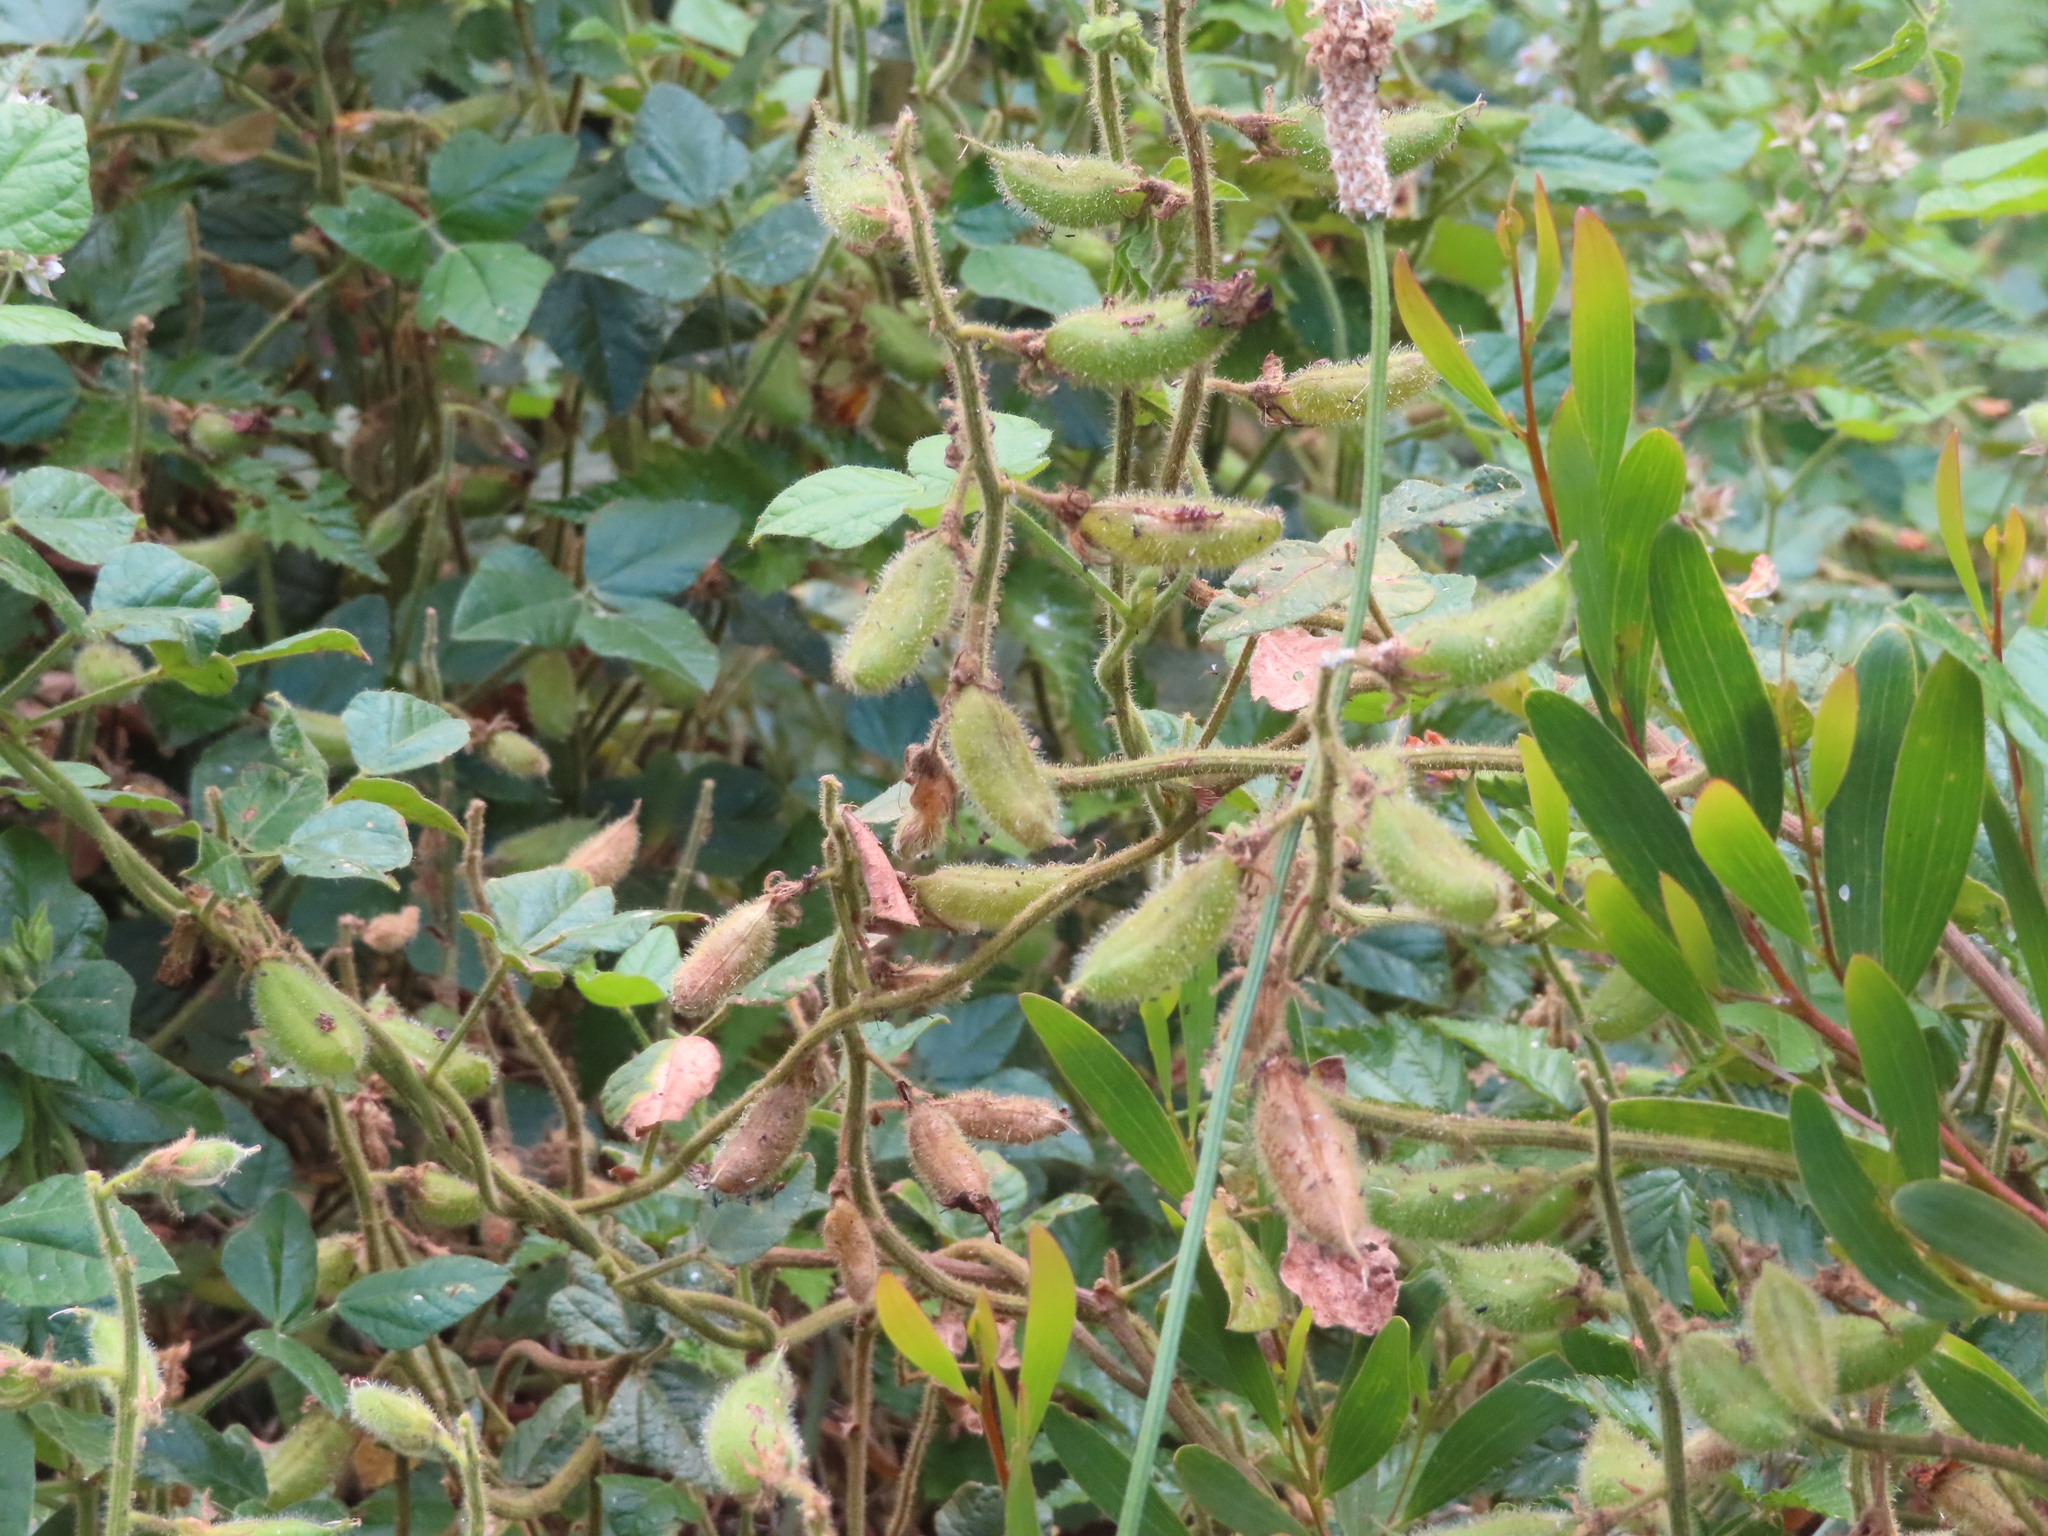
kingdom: Plantae
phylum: Tracheophyta
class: Magnoliopsida
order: Fabales
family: Fabaceae
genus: Bolusafra
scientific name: Bolusafra bituminosa
